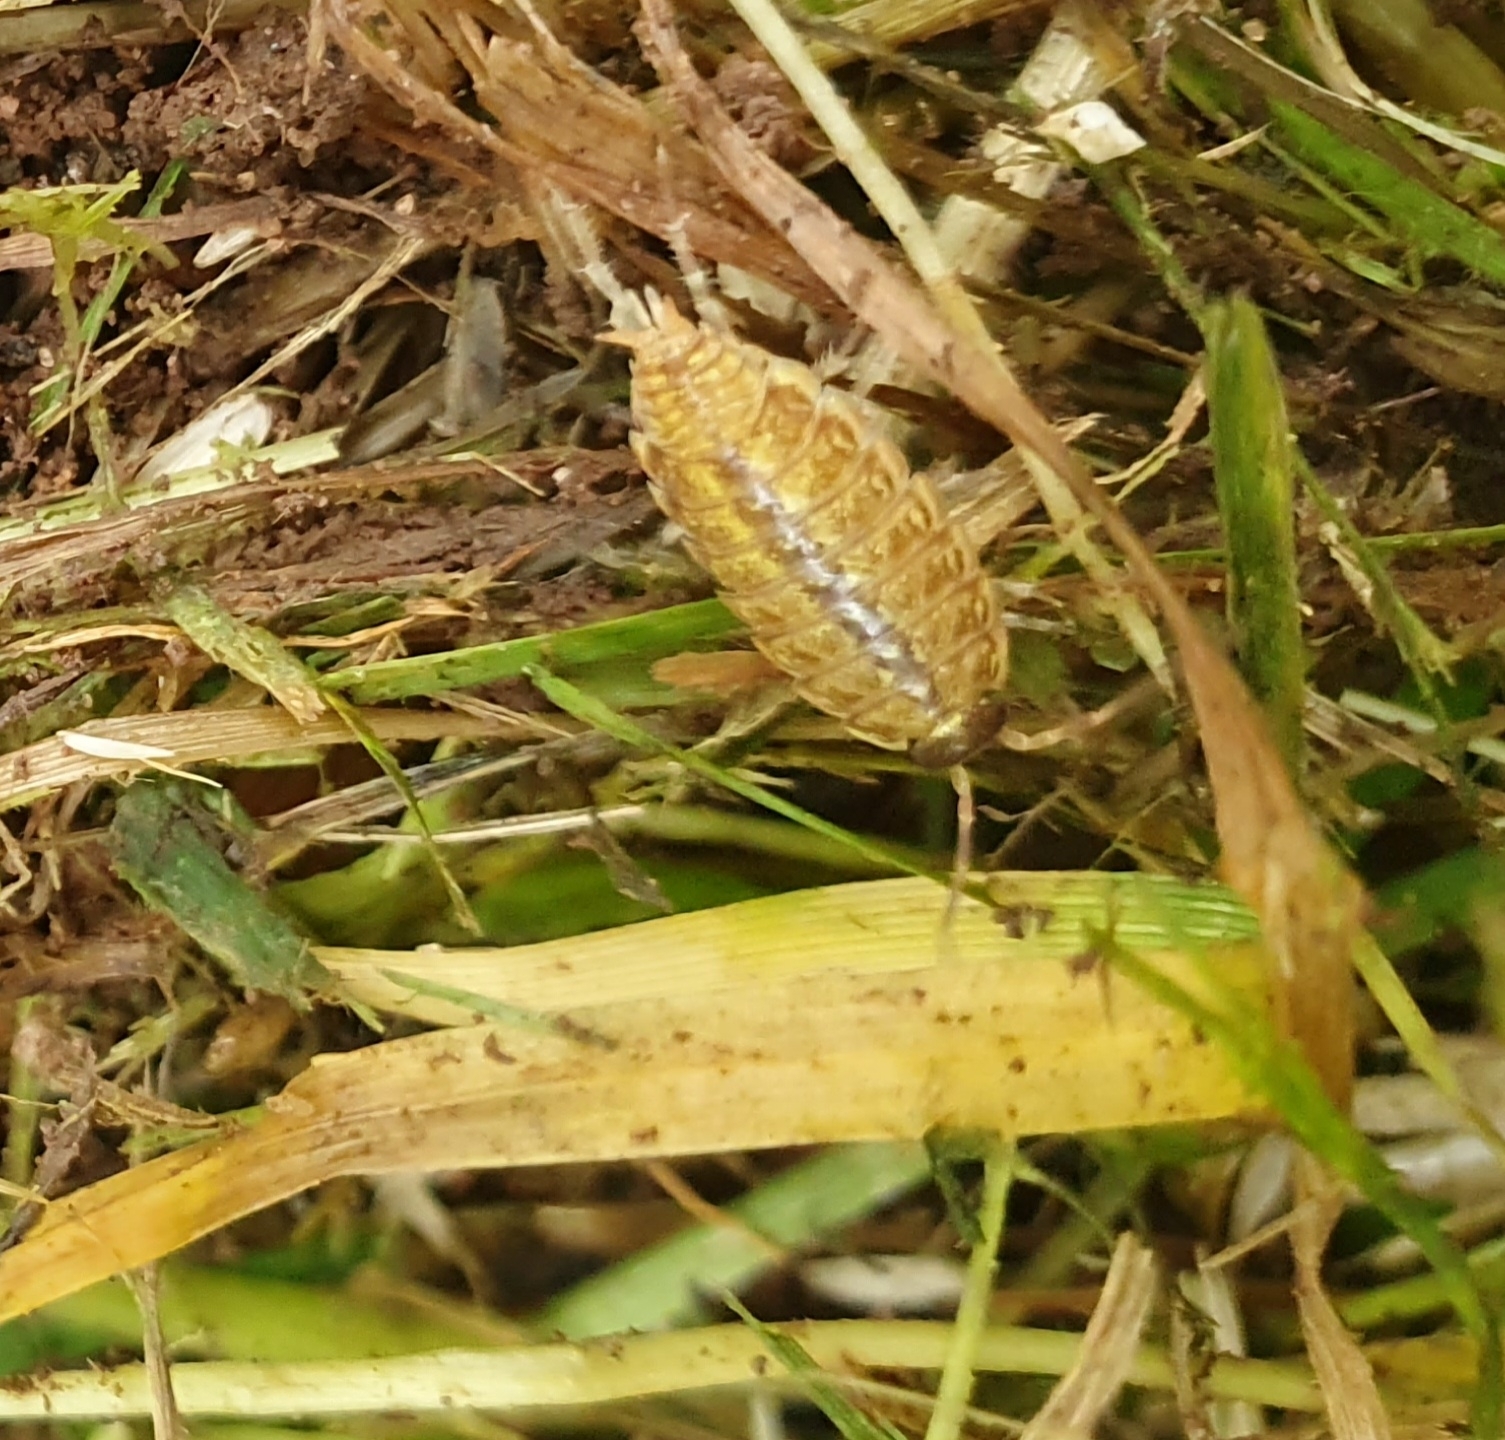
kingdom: Animalia
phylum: Arthropoda
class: Malacostraca
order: Isopoda
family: Philosciidae
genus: Philoscia
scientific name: Philoscia muscorum
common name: Common striped woodlouse
